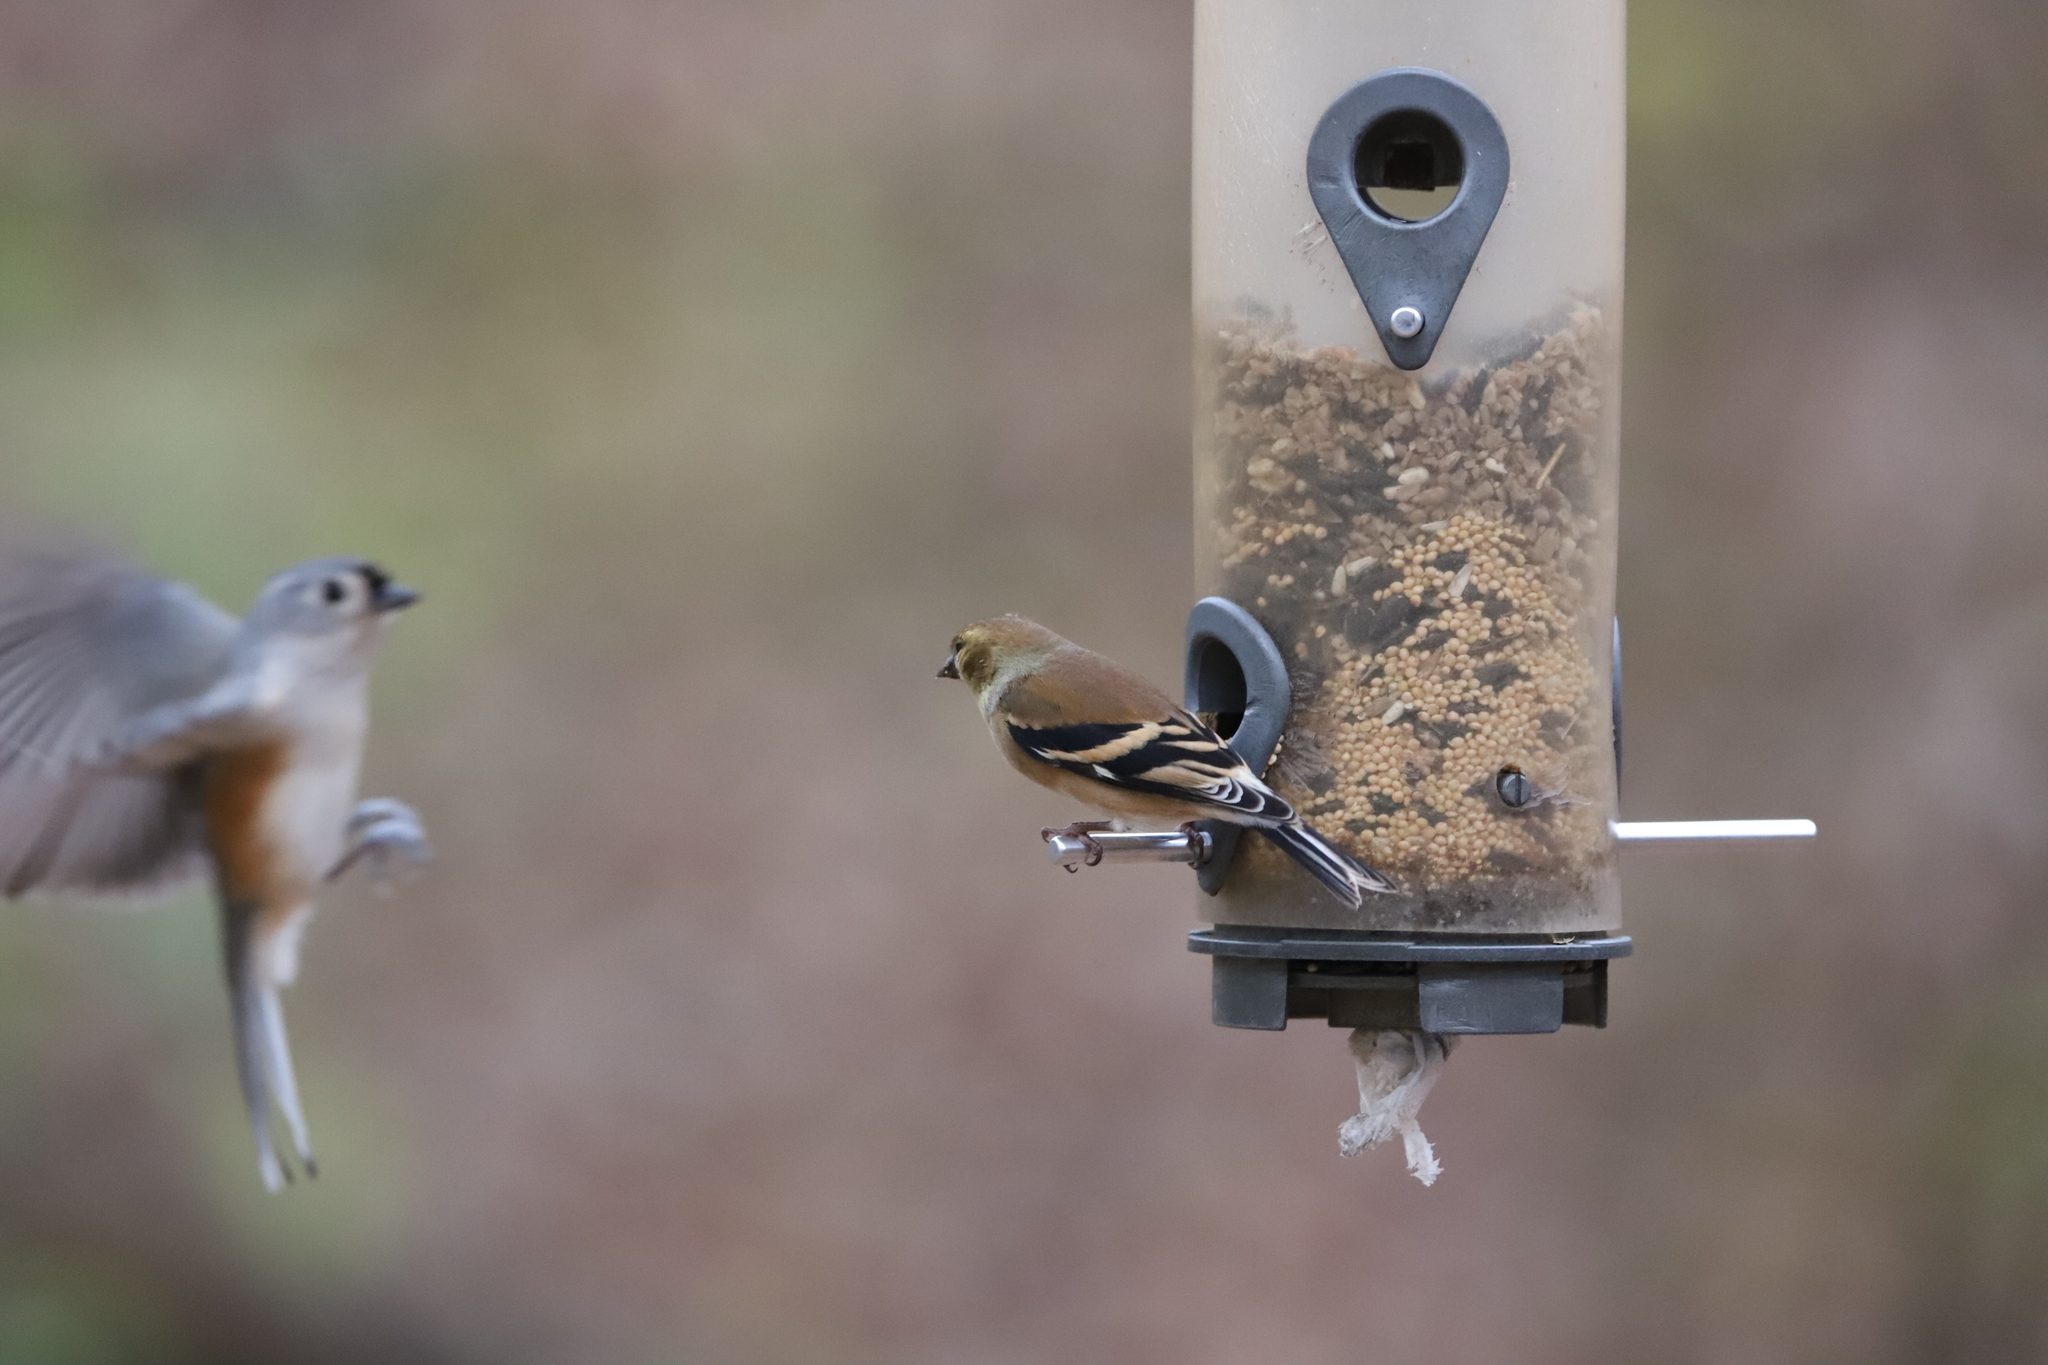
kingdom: Animalia
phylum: Chordata
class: Aves
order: Passeriformes
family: Fringillidae
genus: Spinus
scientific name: Spinus tristis
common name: American goldfinch
